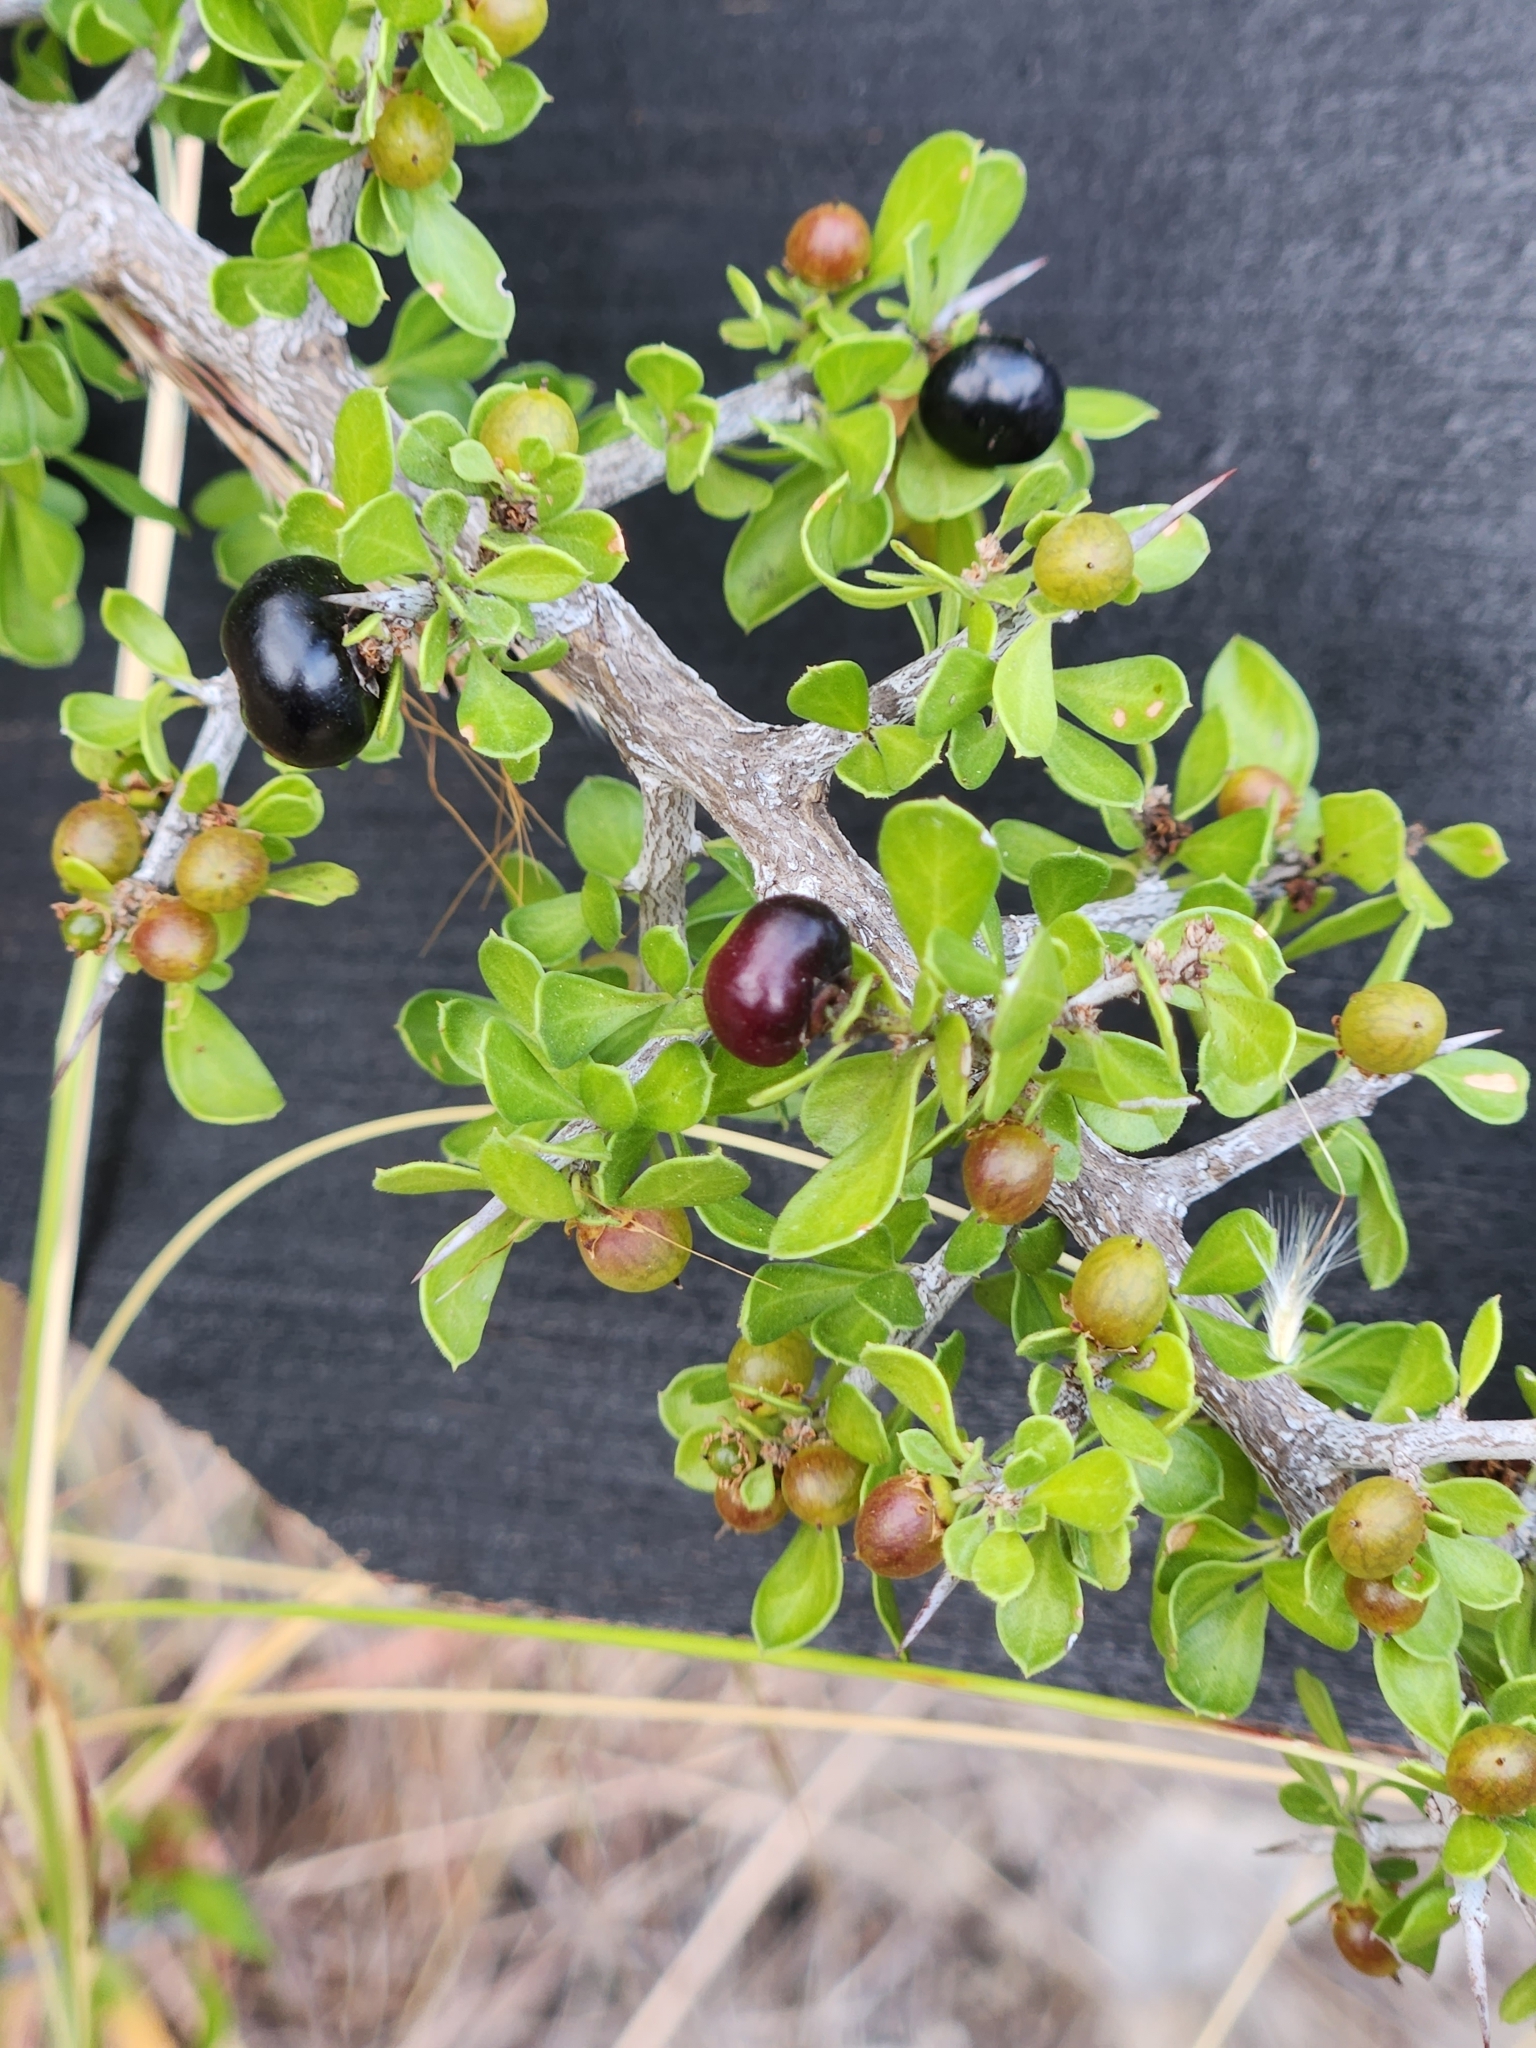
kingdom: Plantae
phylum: Tracheophyta
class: Magnoliopsida
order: Rosales
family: Rhamnaceae
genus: Condalia
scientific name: Condalia viridis
